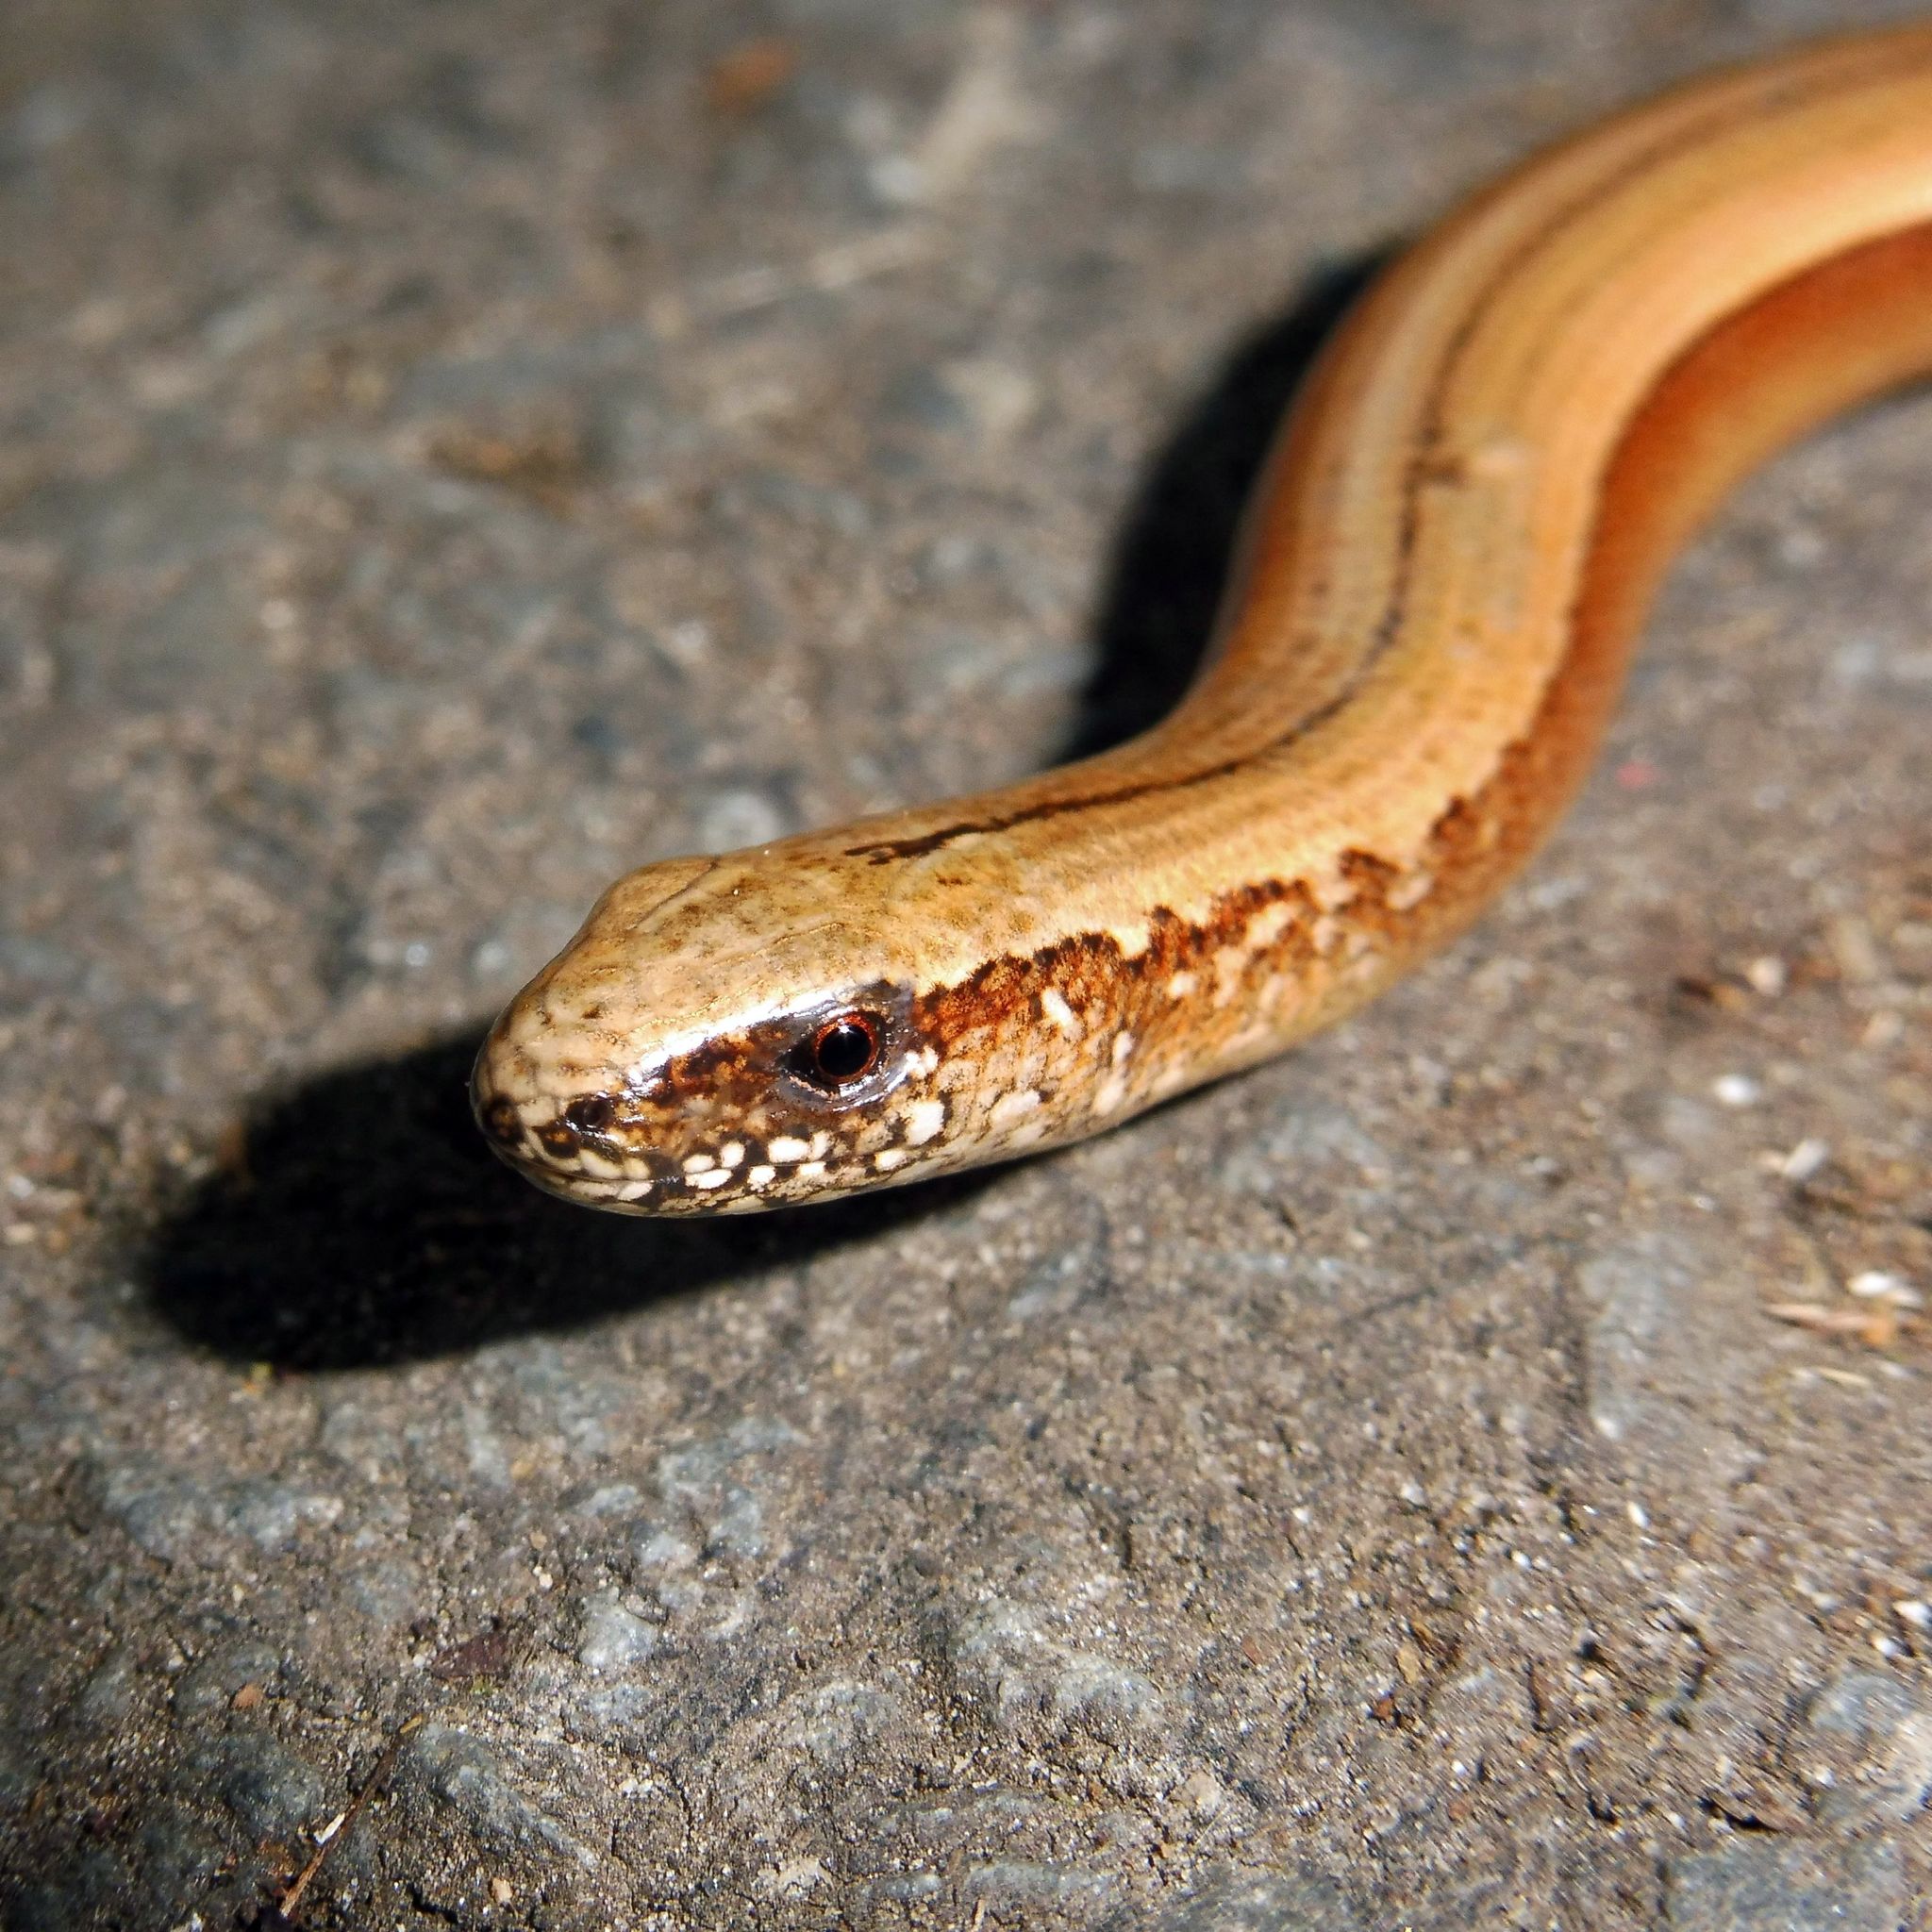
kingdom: Animalia
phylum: Chordata
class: Squamata
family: Anguidae
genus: Anguis
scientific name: Anguis fragilis
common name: Slow worm
